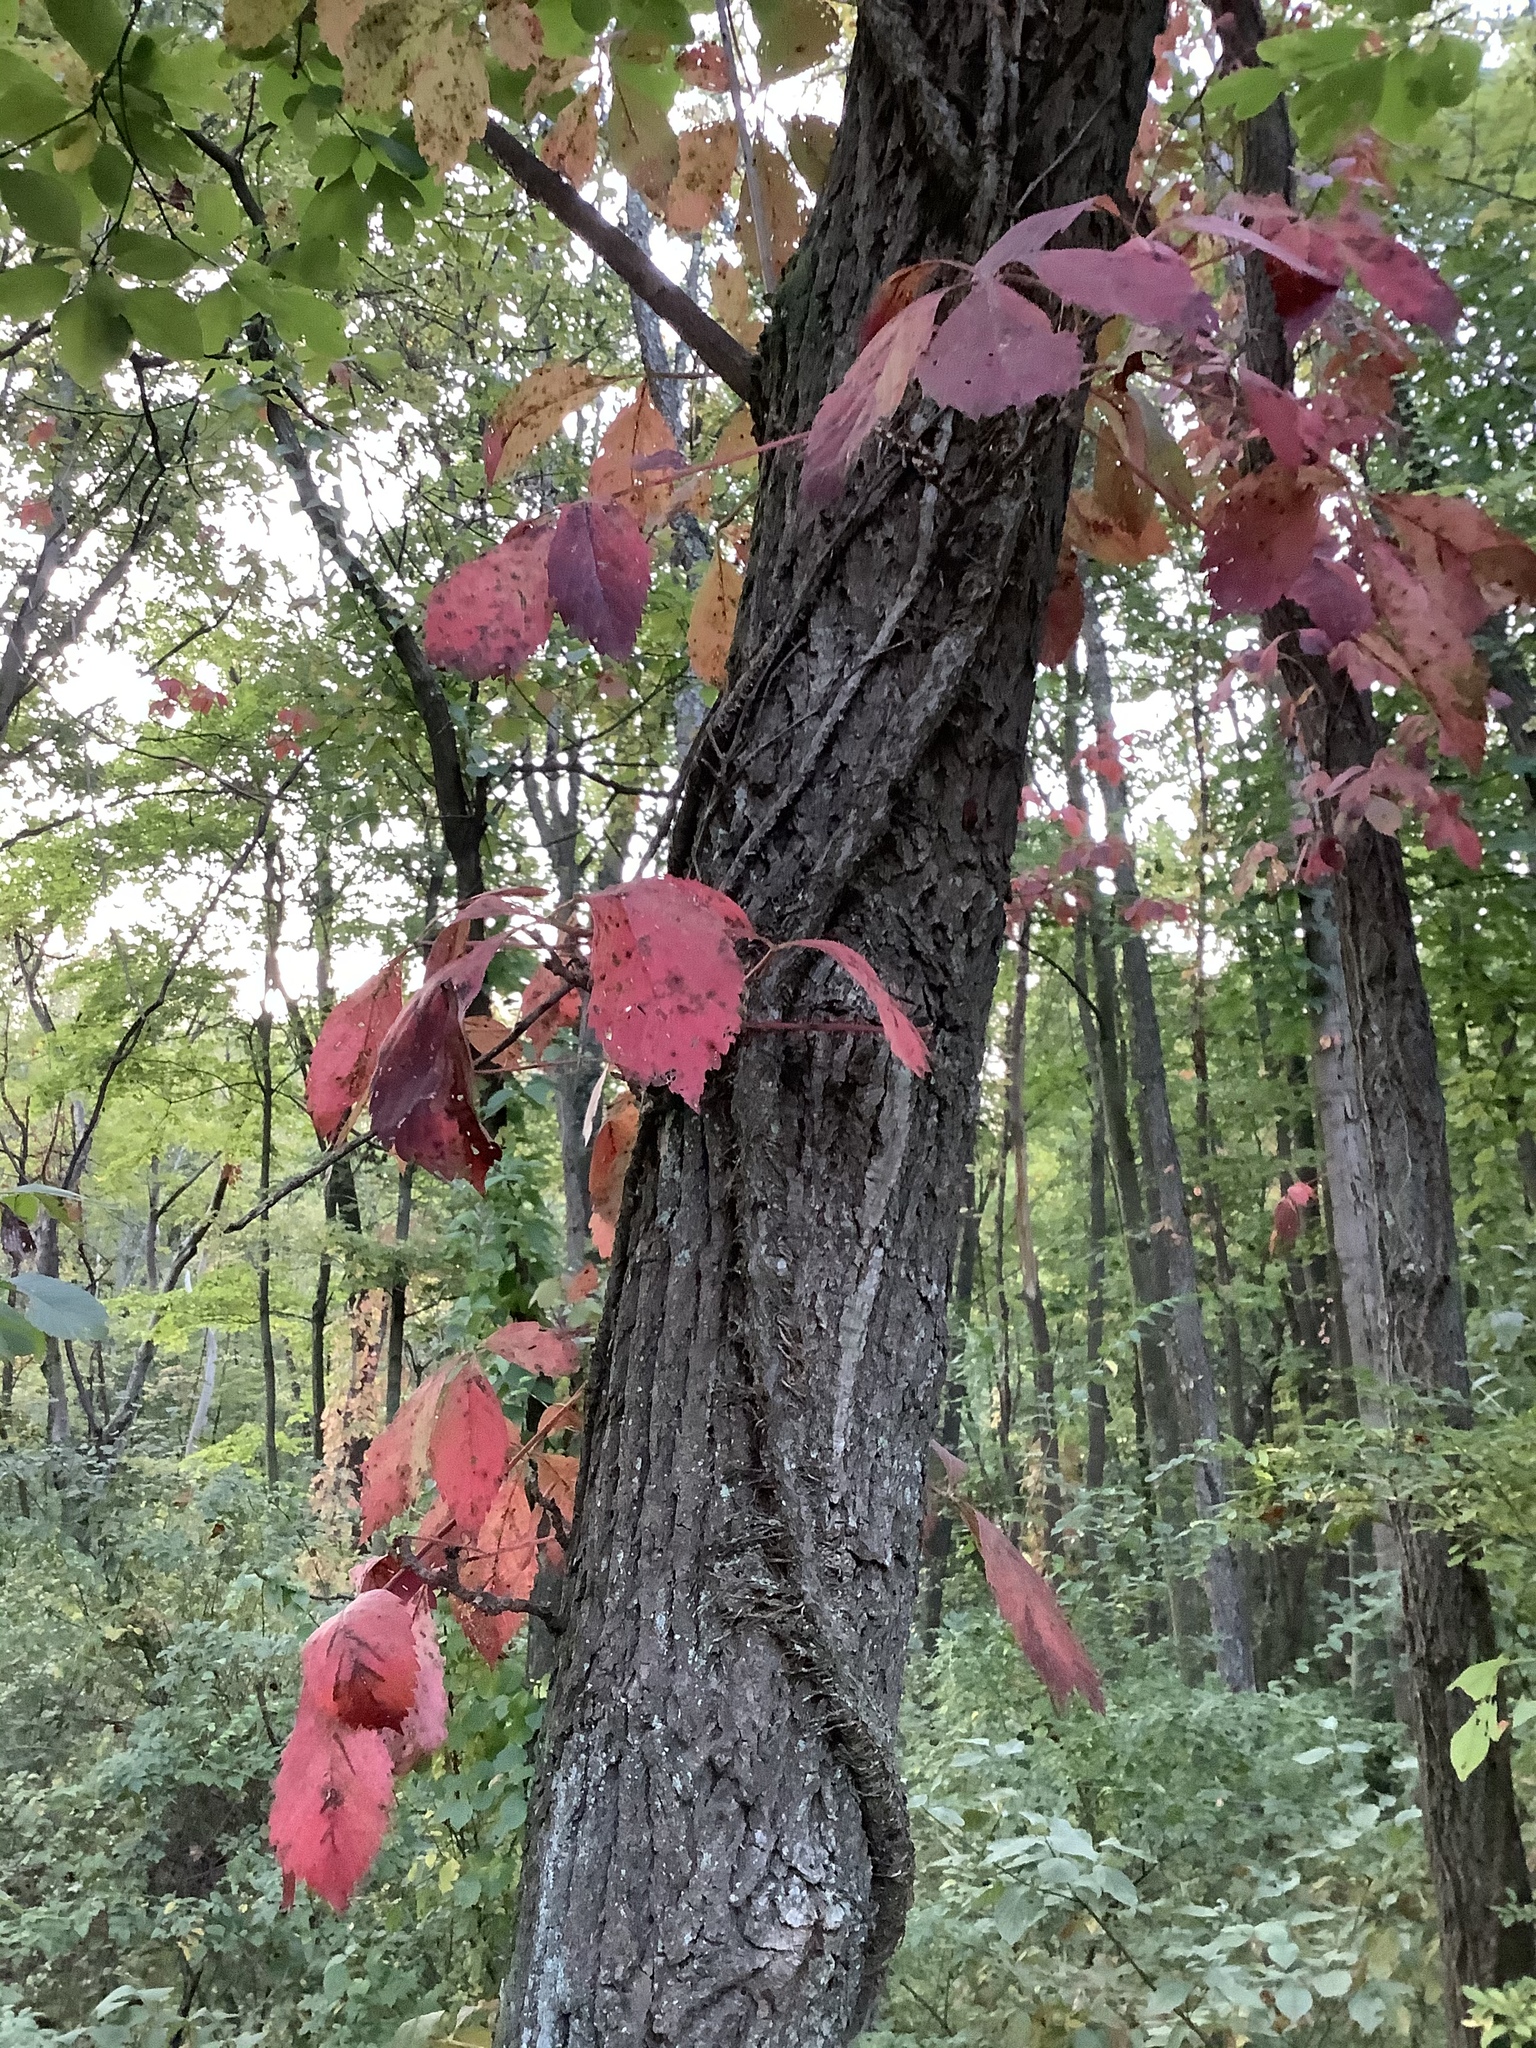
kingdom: Plantae
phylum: Tracheophyta
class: Magnoliopsida
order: Vitales
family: Vitaceae
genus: Parthenocissus
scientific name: Parthenocissus quinquefolia
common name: Virginia-creeper
